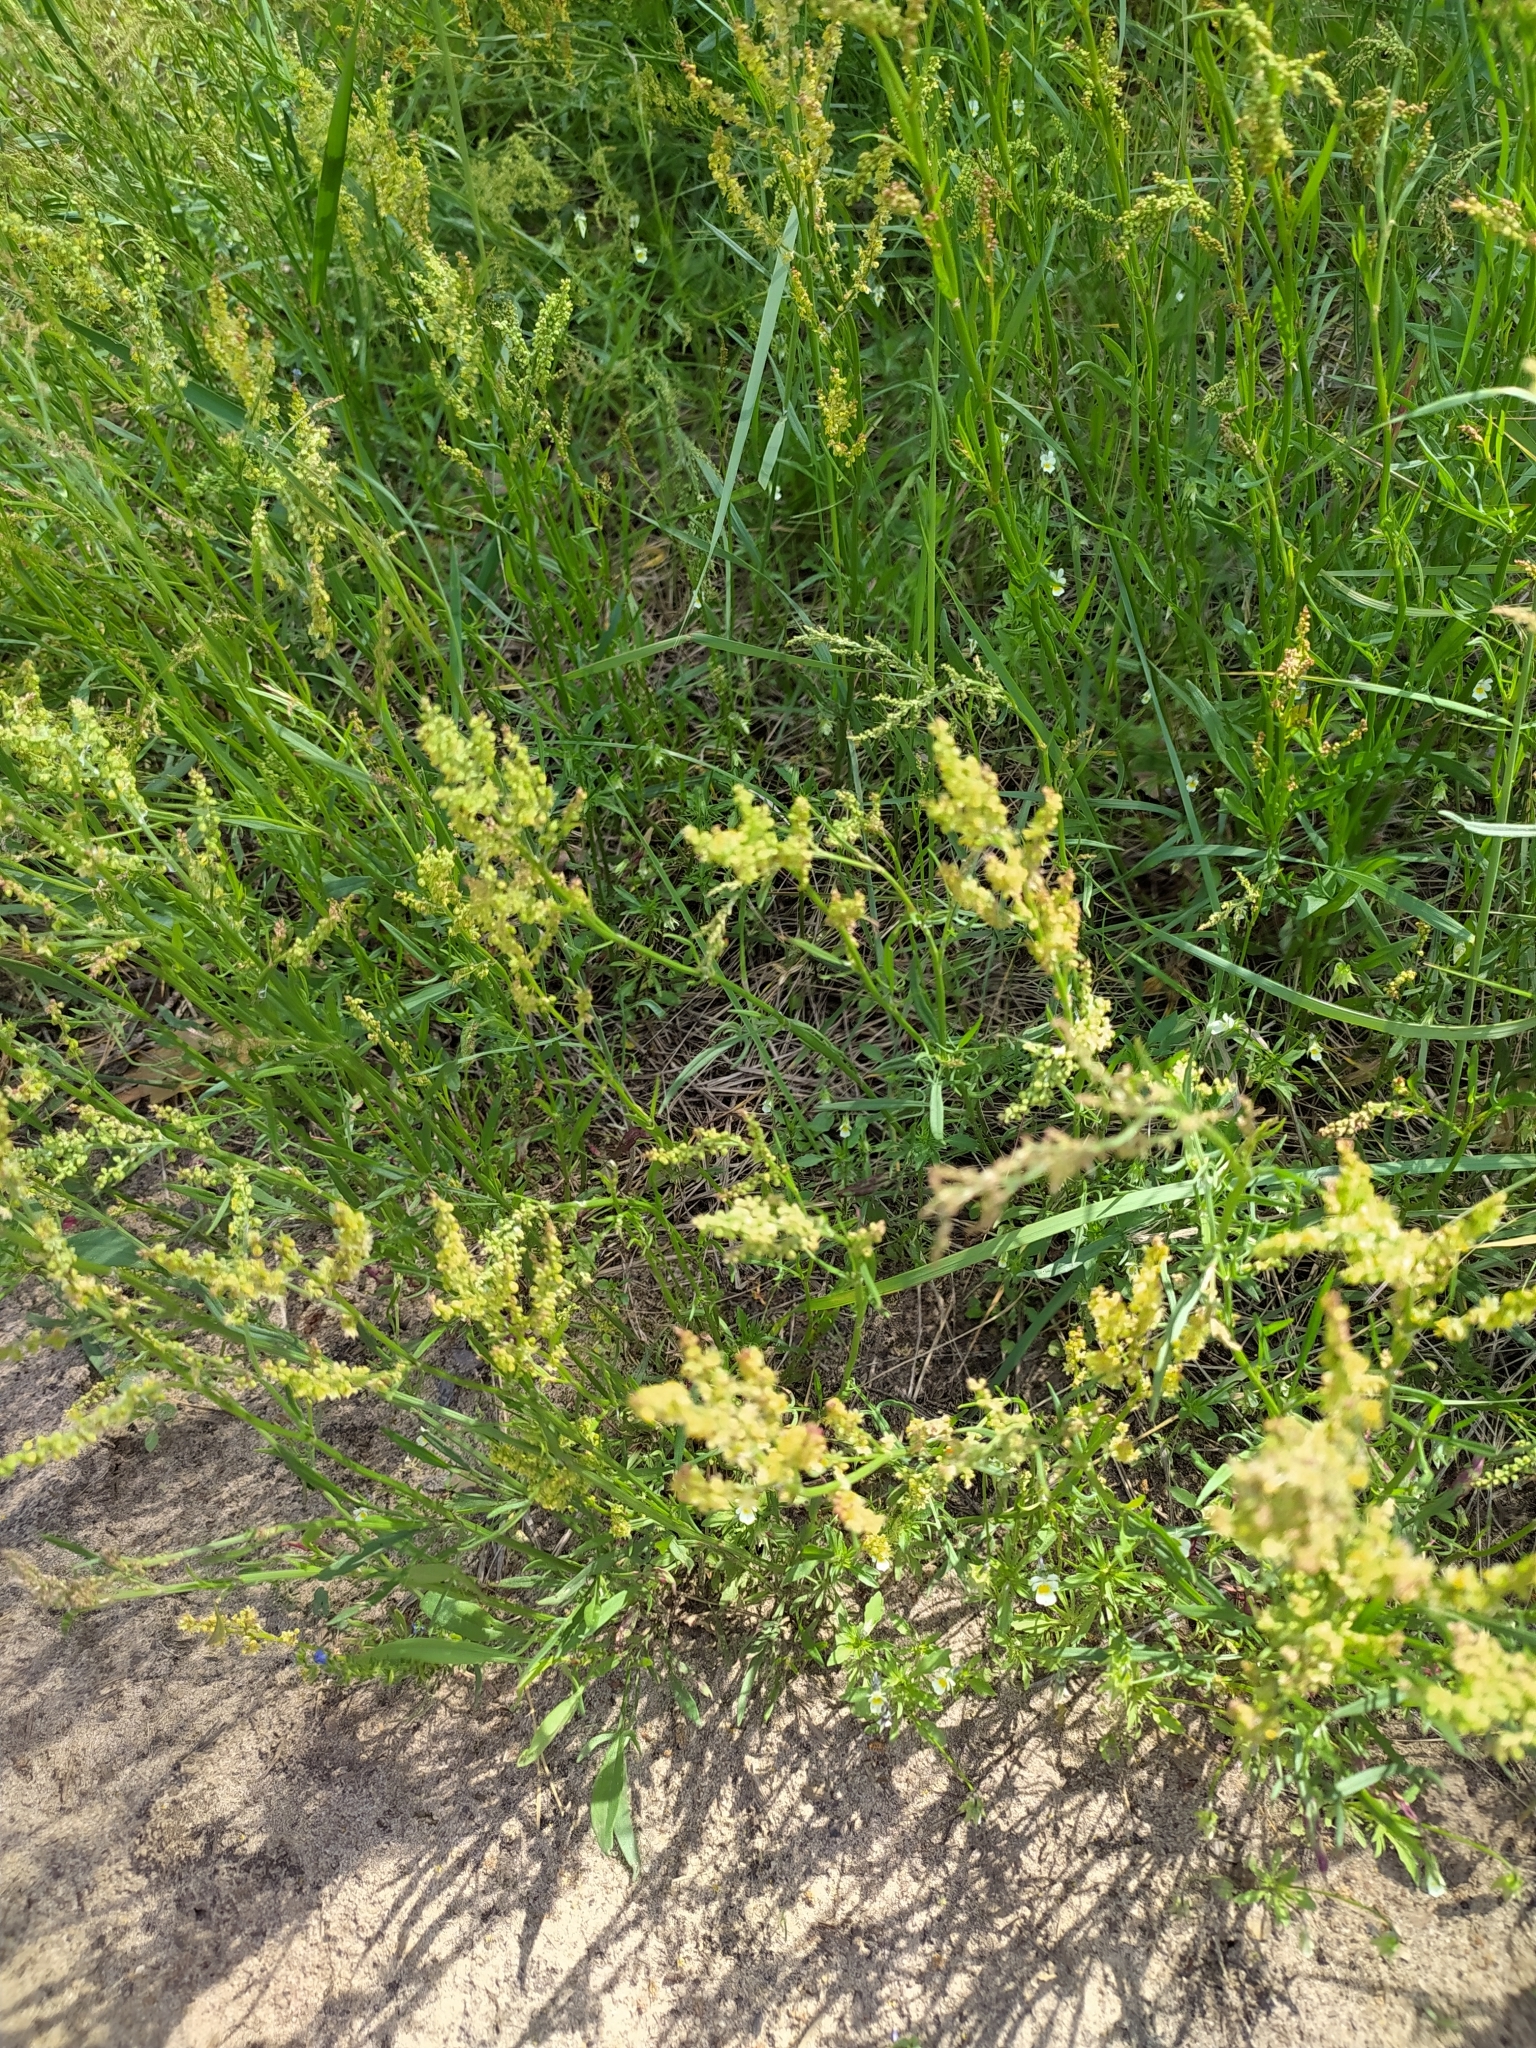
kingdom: Plantae
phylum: Tracheophyta
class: Magnoliopsida
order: Caryophyllales
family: Polygonaceae
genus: Rumex
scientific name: Rumex acetosella
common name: Common sheep sorrel
